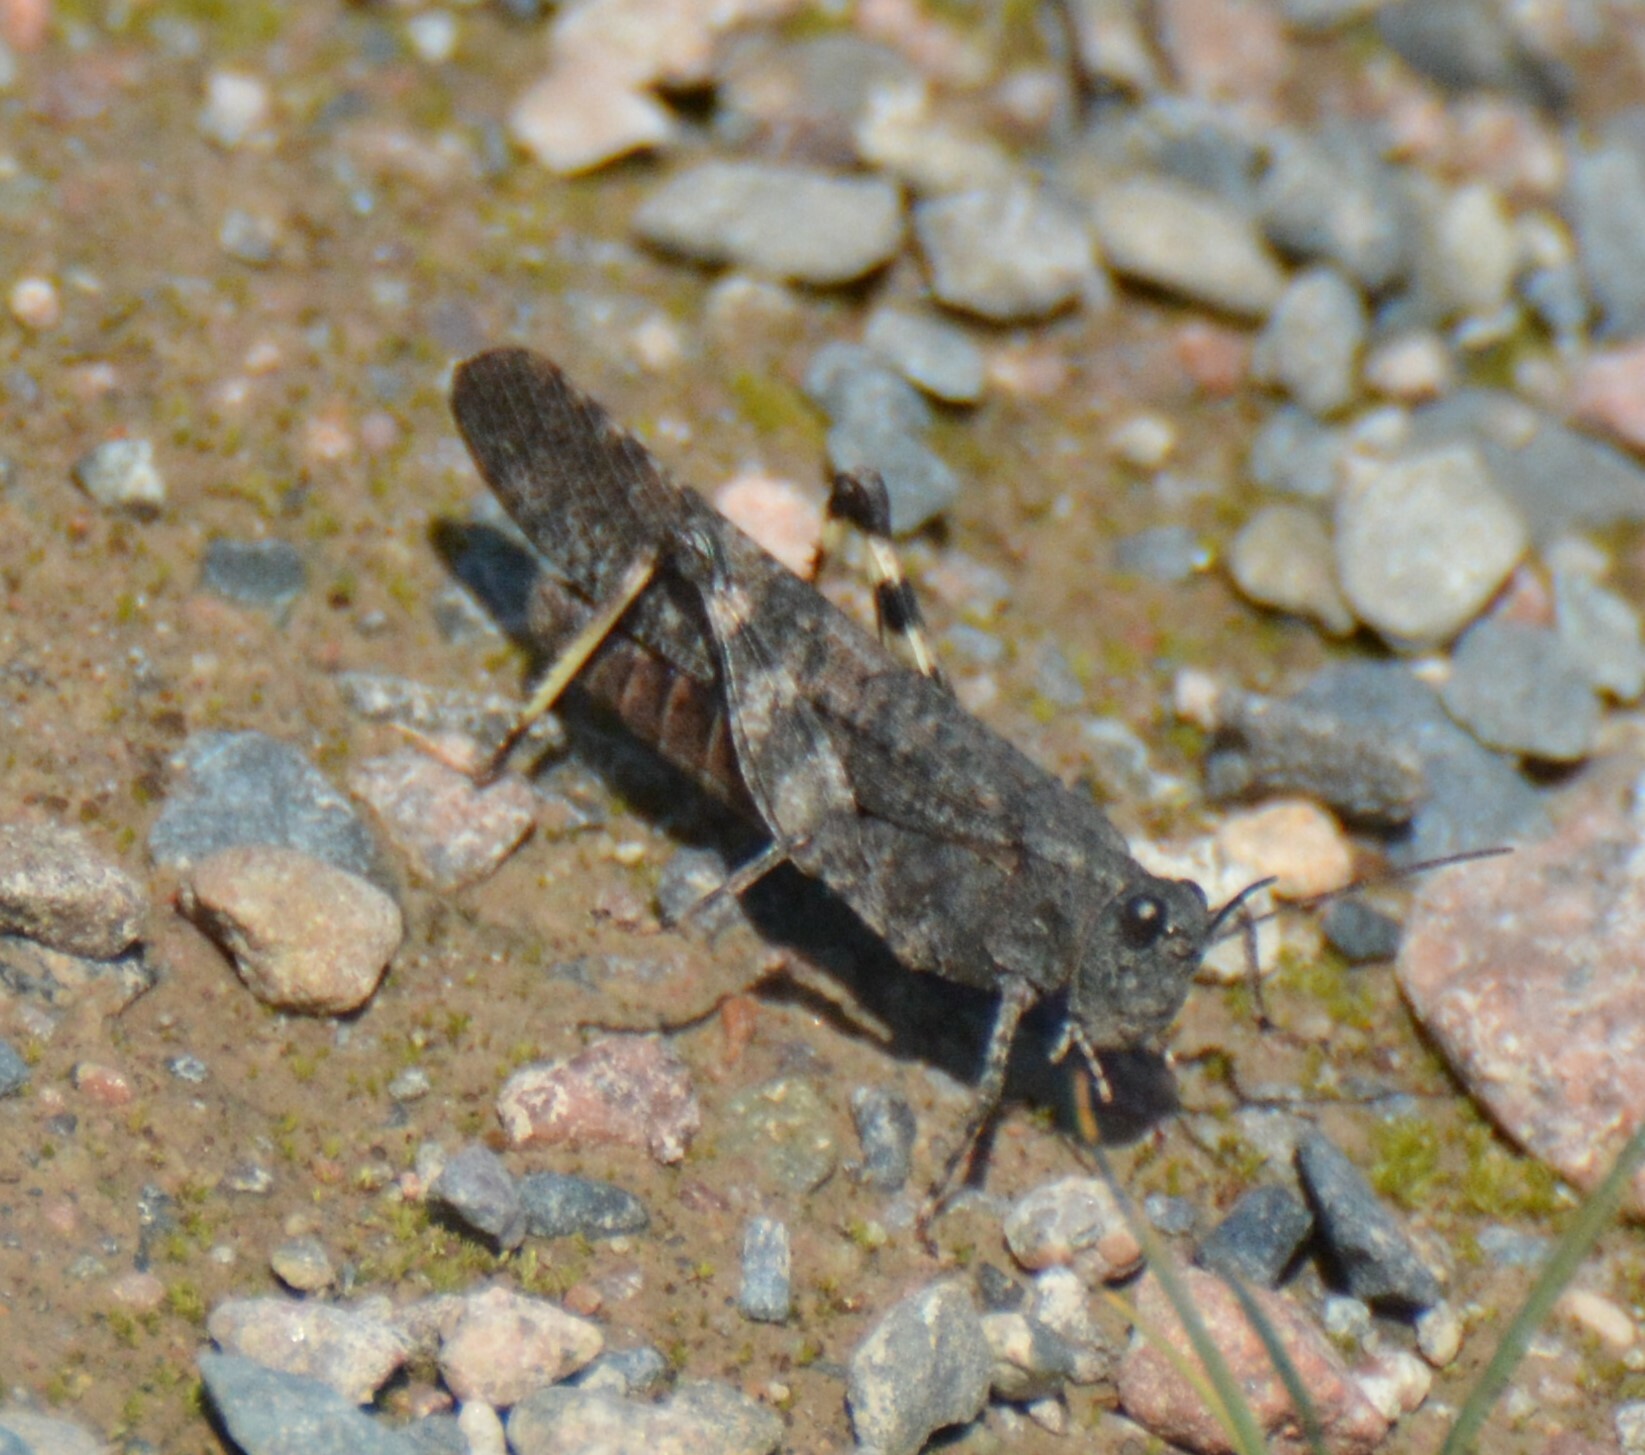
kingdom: Animalia
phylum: Arthropoda
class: Insecta
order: Orthoptera
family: Acrididae
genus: Trimerotropis
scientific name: Trimerotropis verruculata
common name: Crackling forest grasshopper
